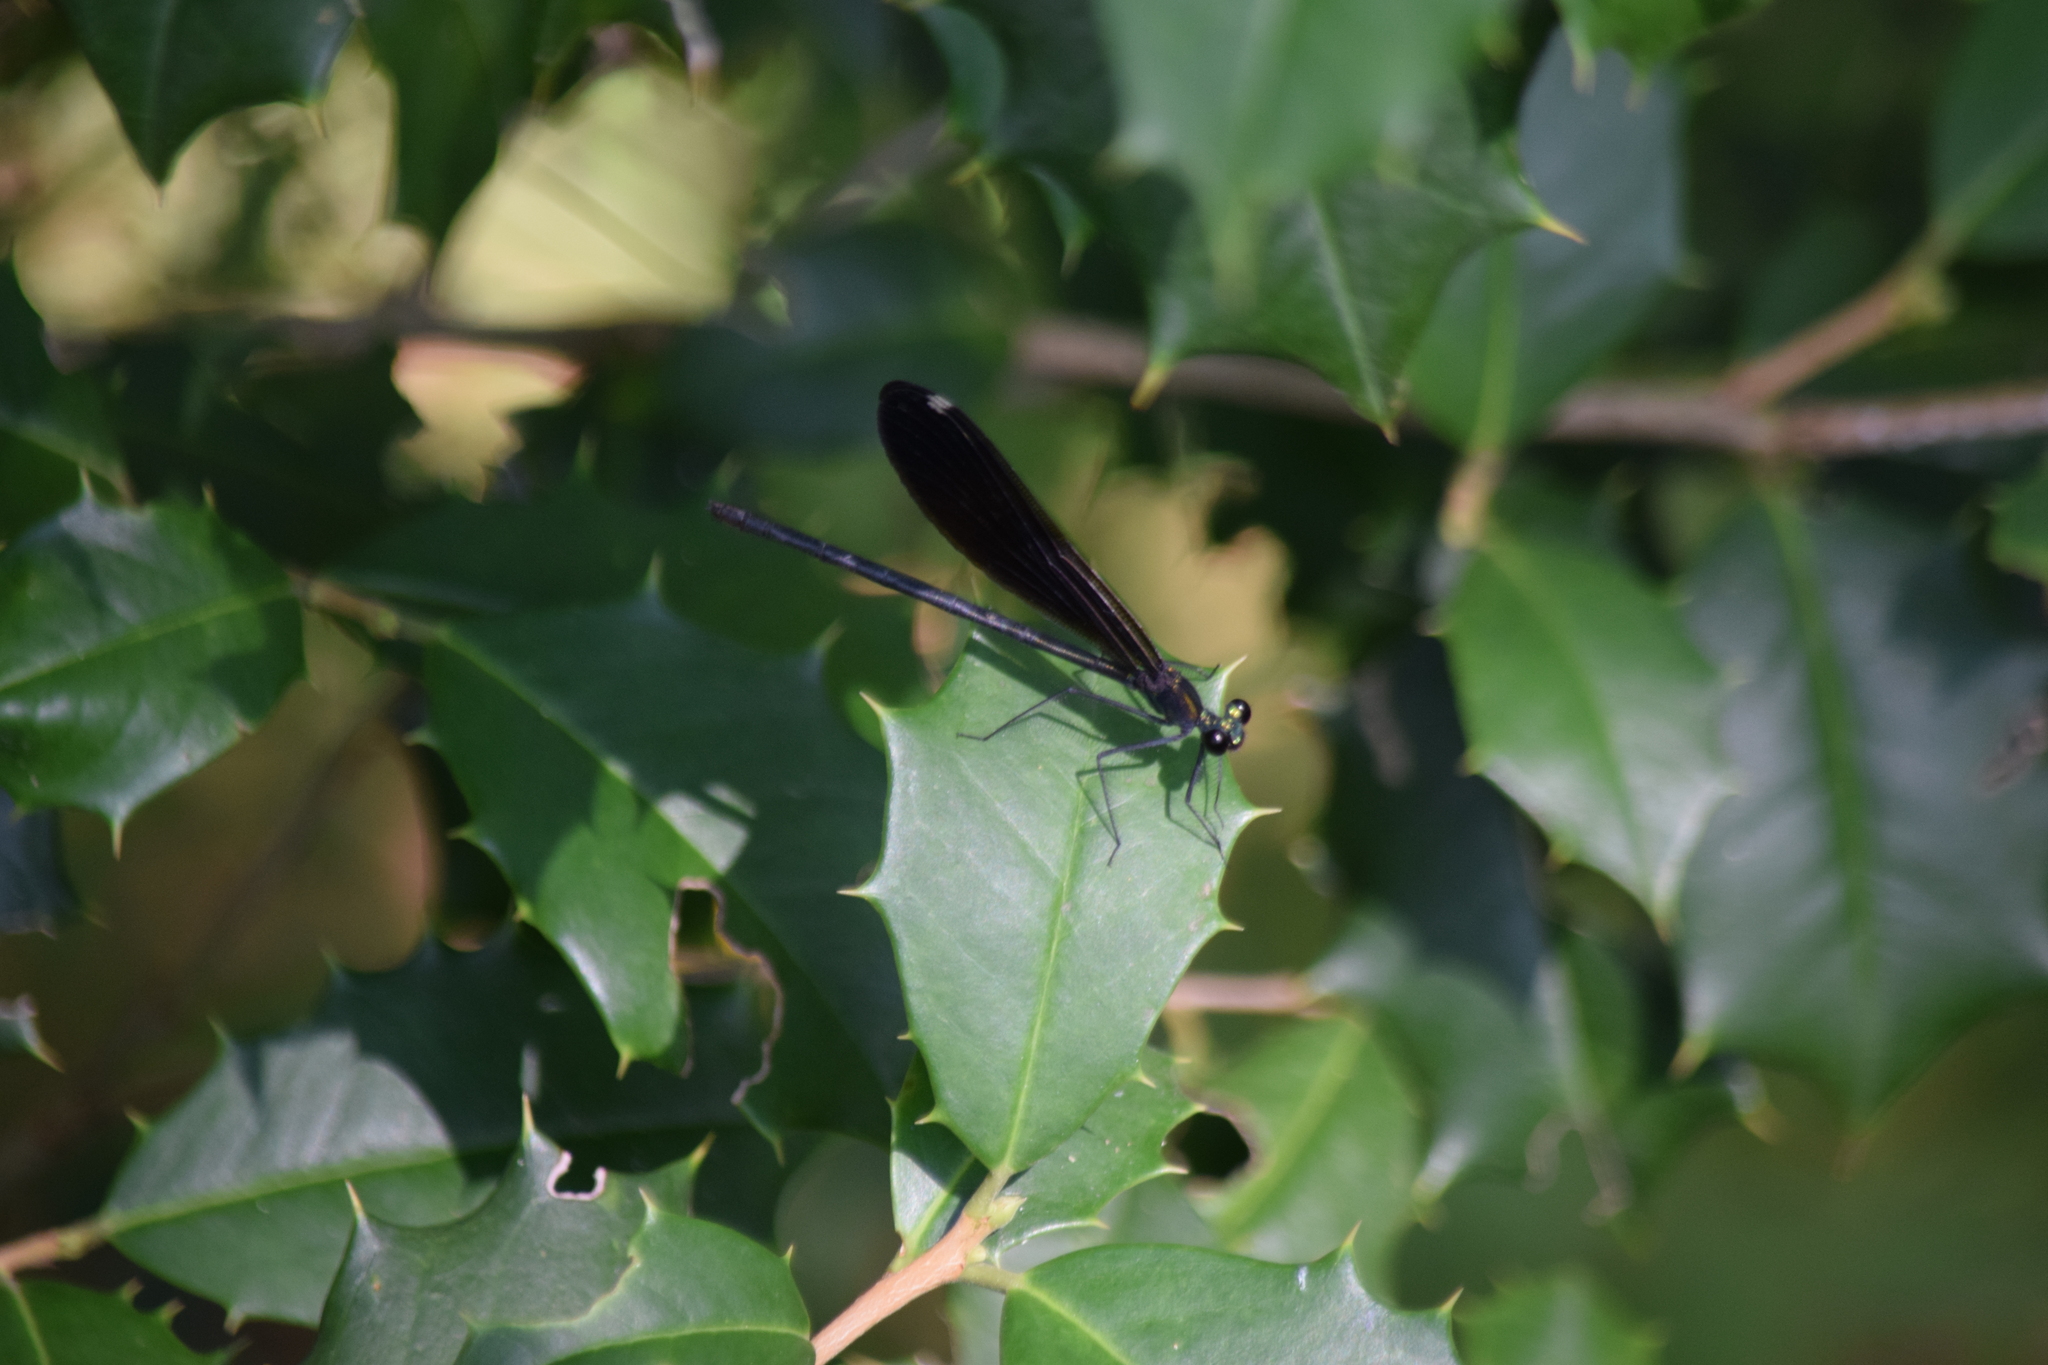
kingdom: Animalia
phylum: Arthropoda
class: Insecta
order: Odonata
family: Calopterygidae
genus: Calopteryx
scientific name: Calopteryx maculata
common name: Ebony jewelwing
